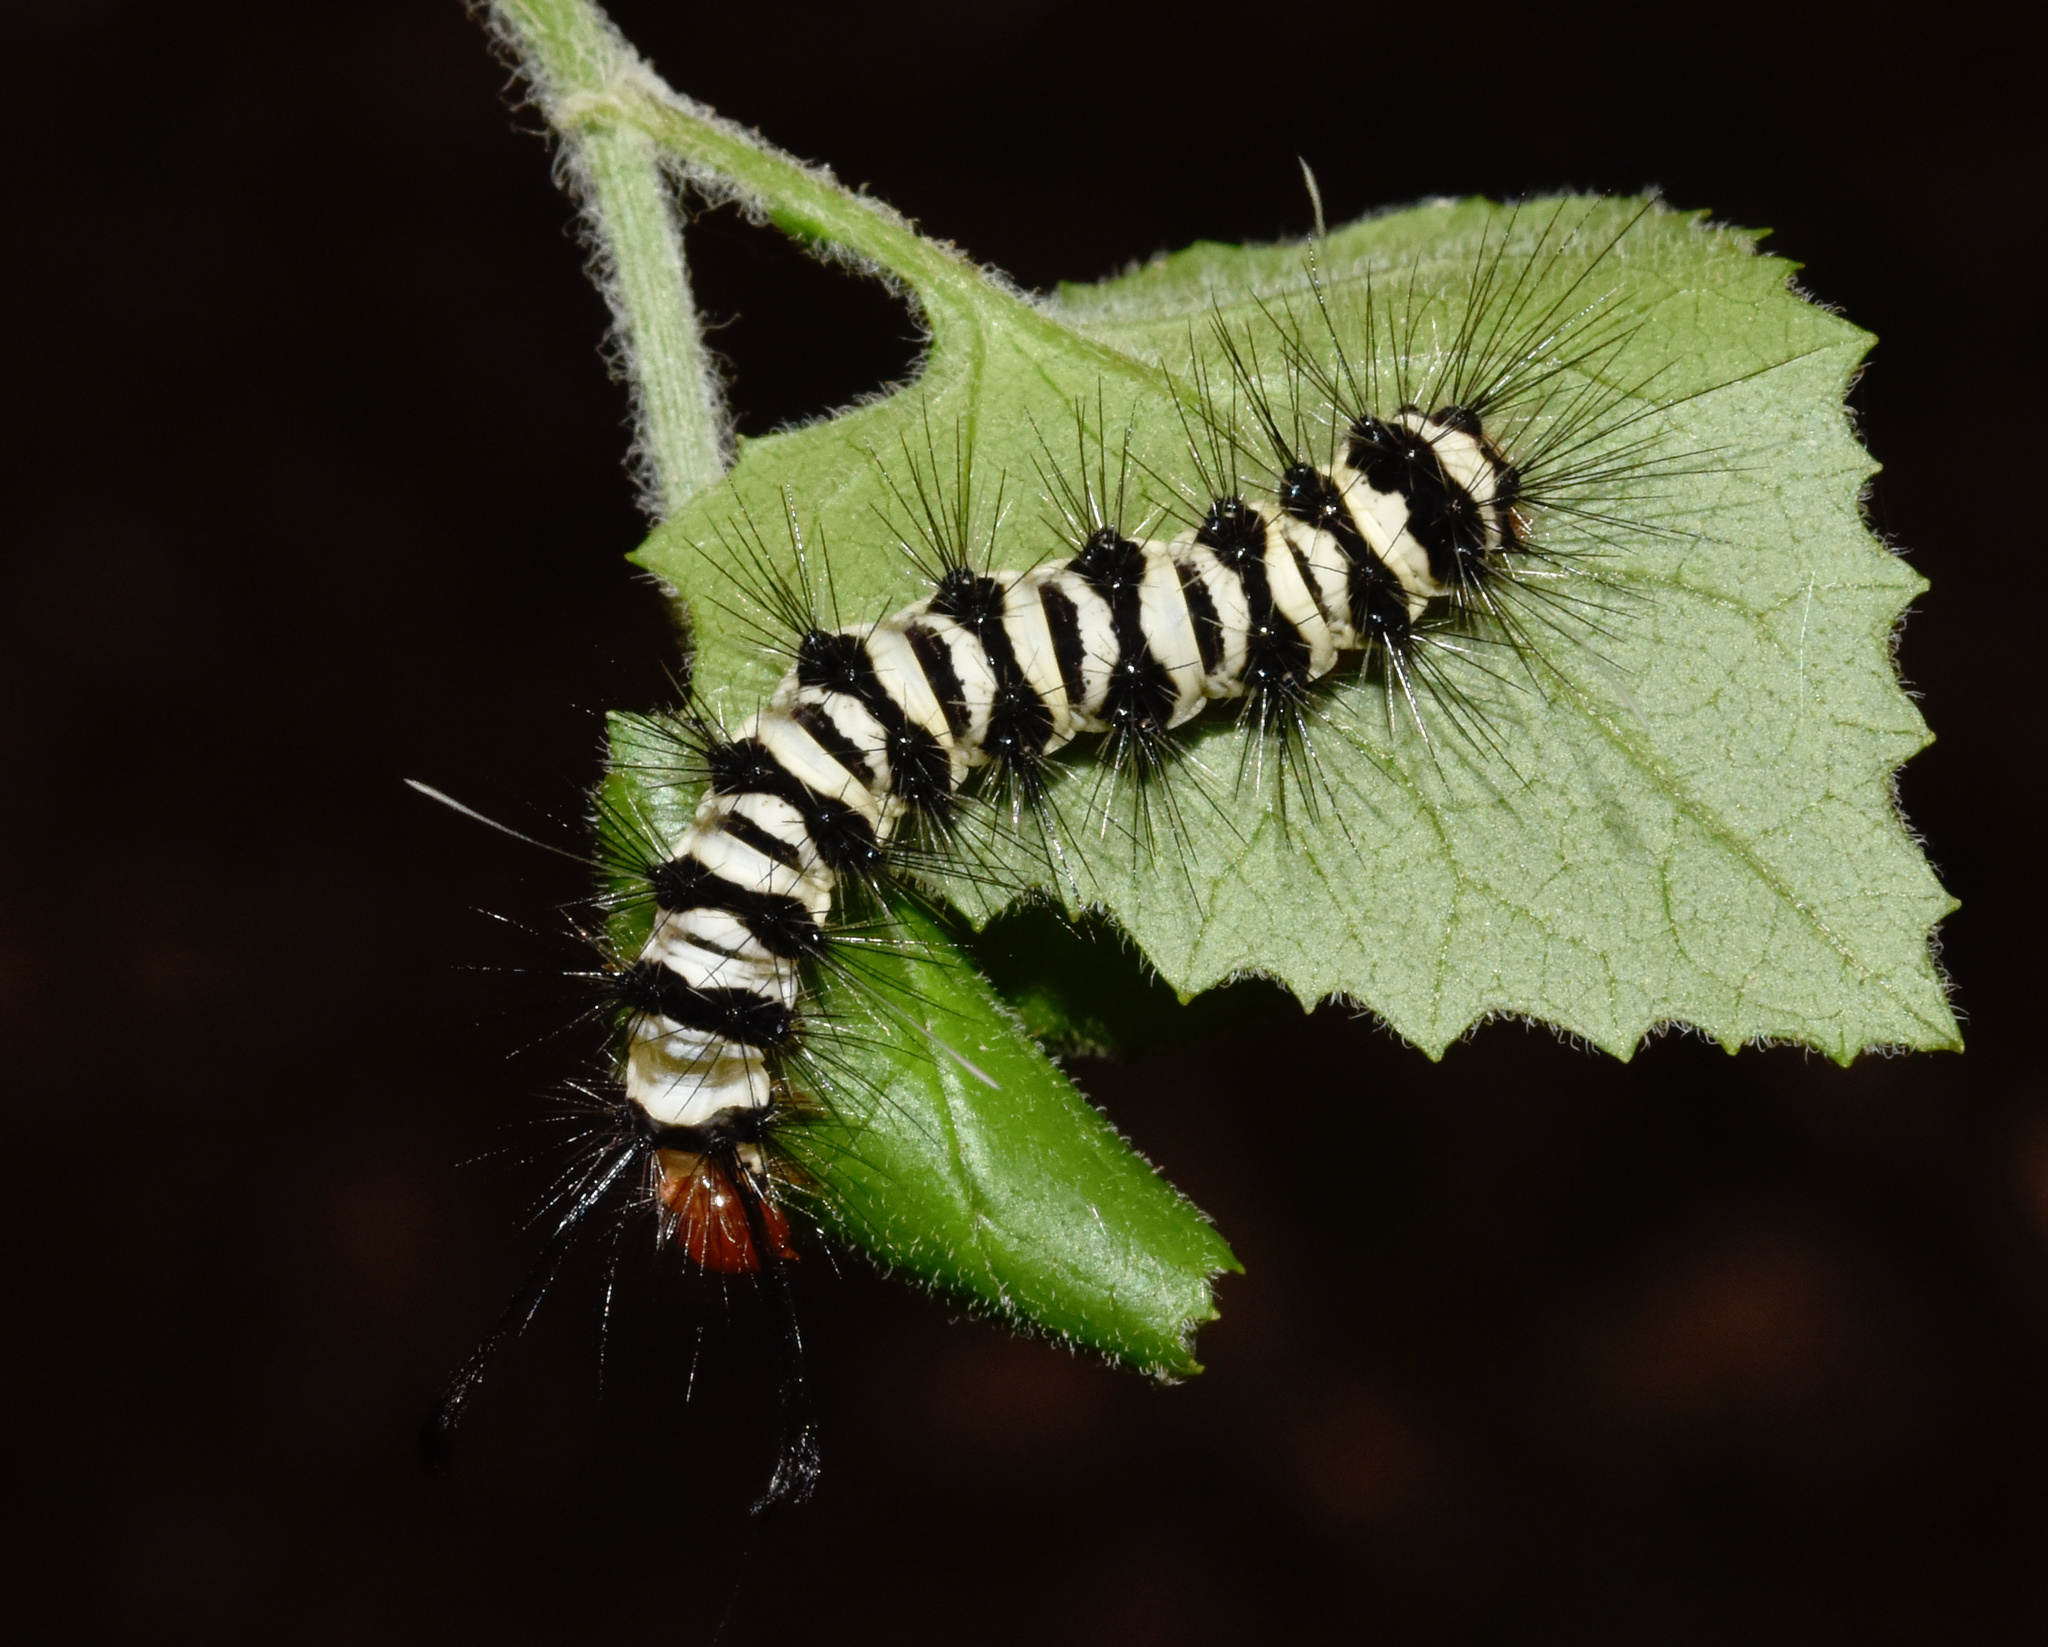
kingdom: Animalia
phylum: Arthropoda
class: Insecta
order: Lepidoptera
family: Erebidae
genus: Nyctemera
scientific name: Nyctemera
